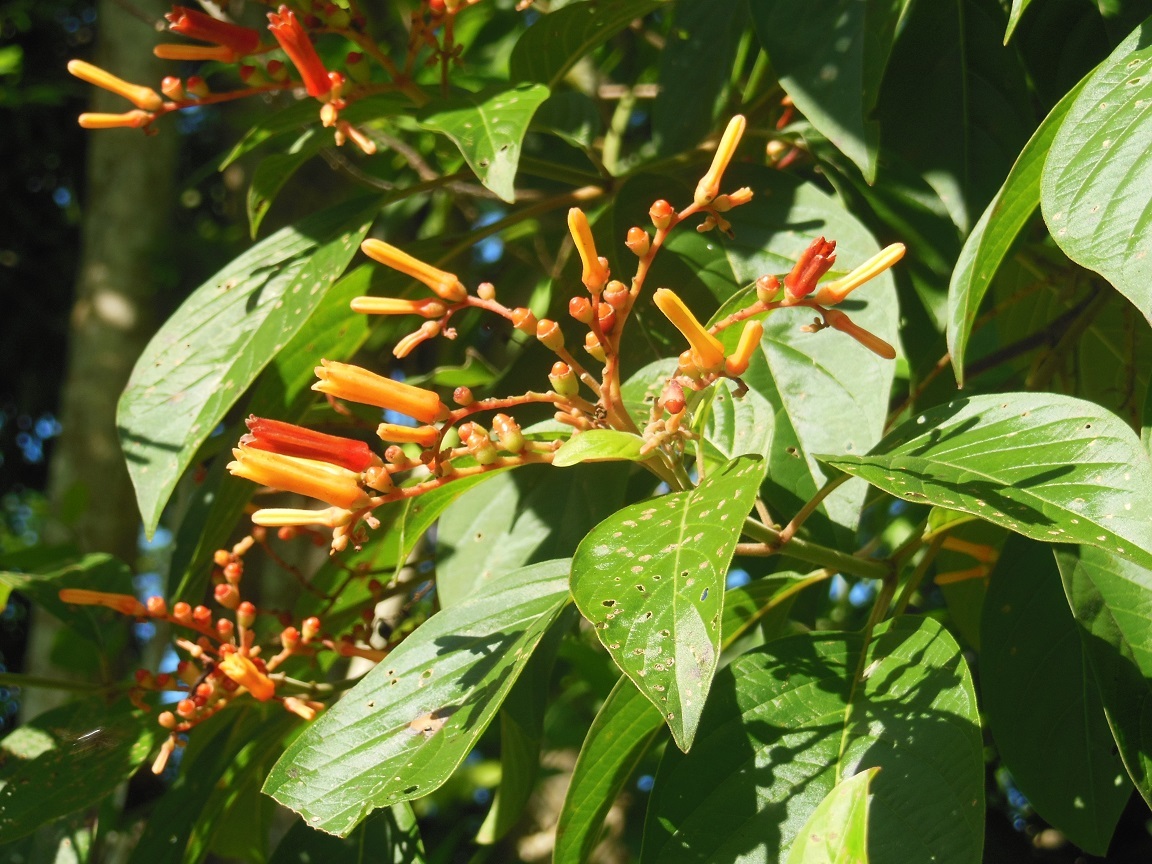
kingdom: Plantae
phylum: Tracheophyta
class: Magnoliopsida
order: Gentianales
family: Rubiaceae
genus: Hamelia
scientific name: Hamelia patens
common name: Redhead
